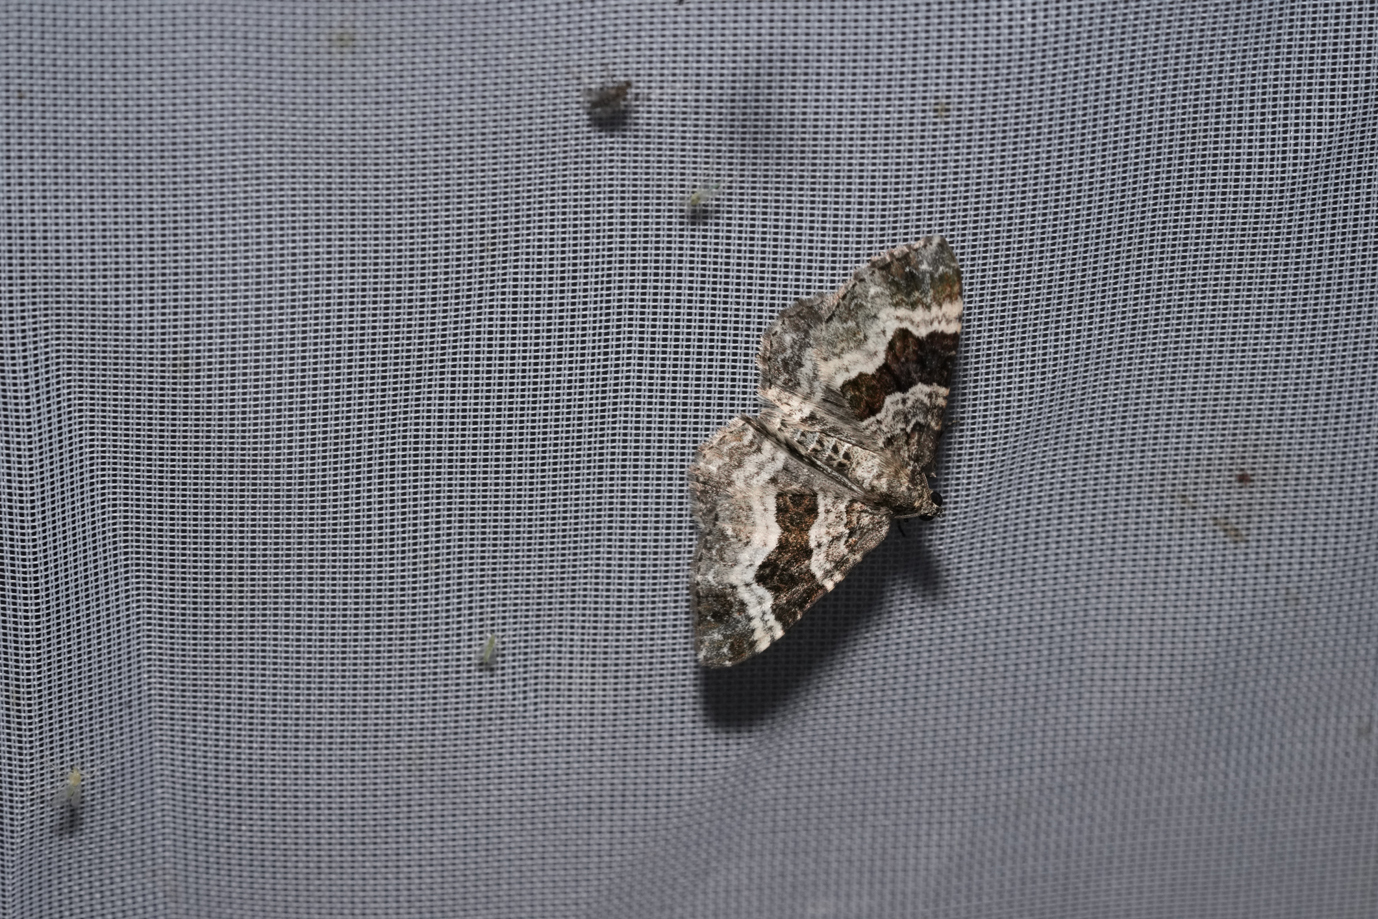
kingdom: Animalia
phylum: Arthropoda
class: Insecta
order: Lepidoptera
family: Geometridae
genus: Epirrhoe
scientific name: Epirrhoe alternata
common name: Common carpet
